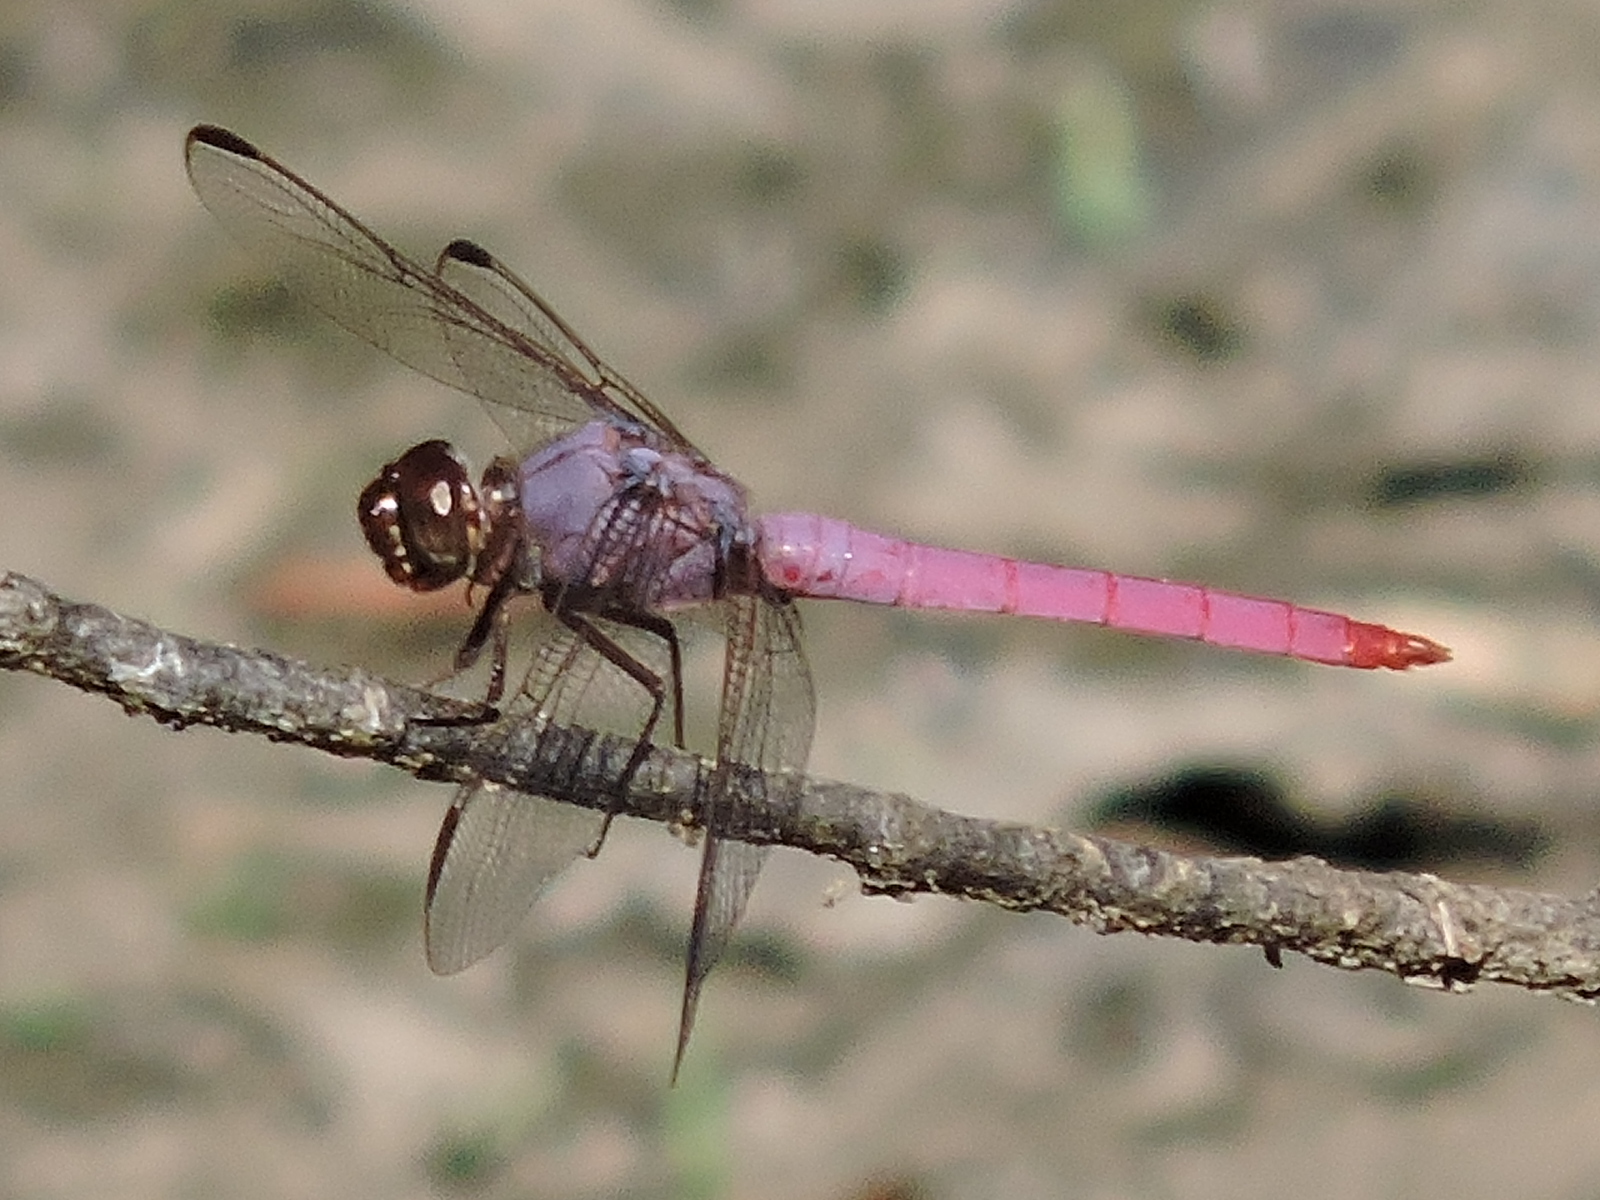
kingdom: Animalia
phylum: Arthropoda
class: Insecta
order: Odonata
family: Libellulidae
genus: Orthemis
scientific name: Orthemis ferruginea
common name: Roseate skimmer
